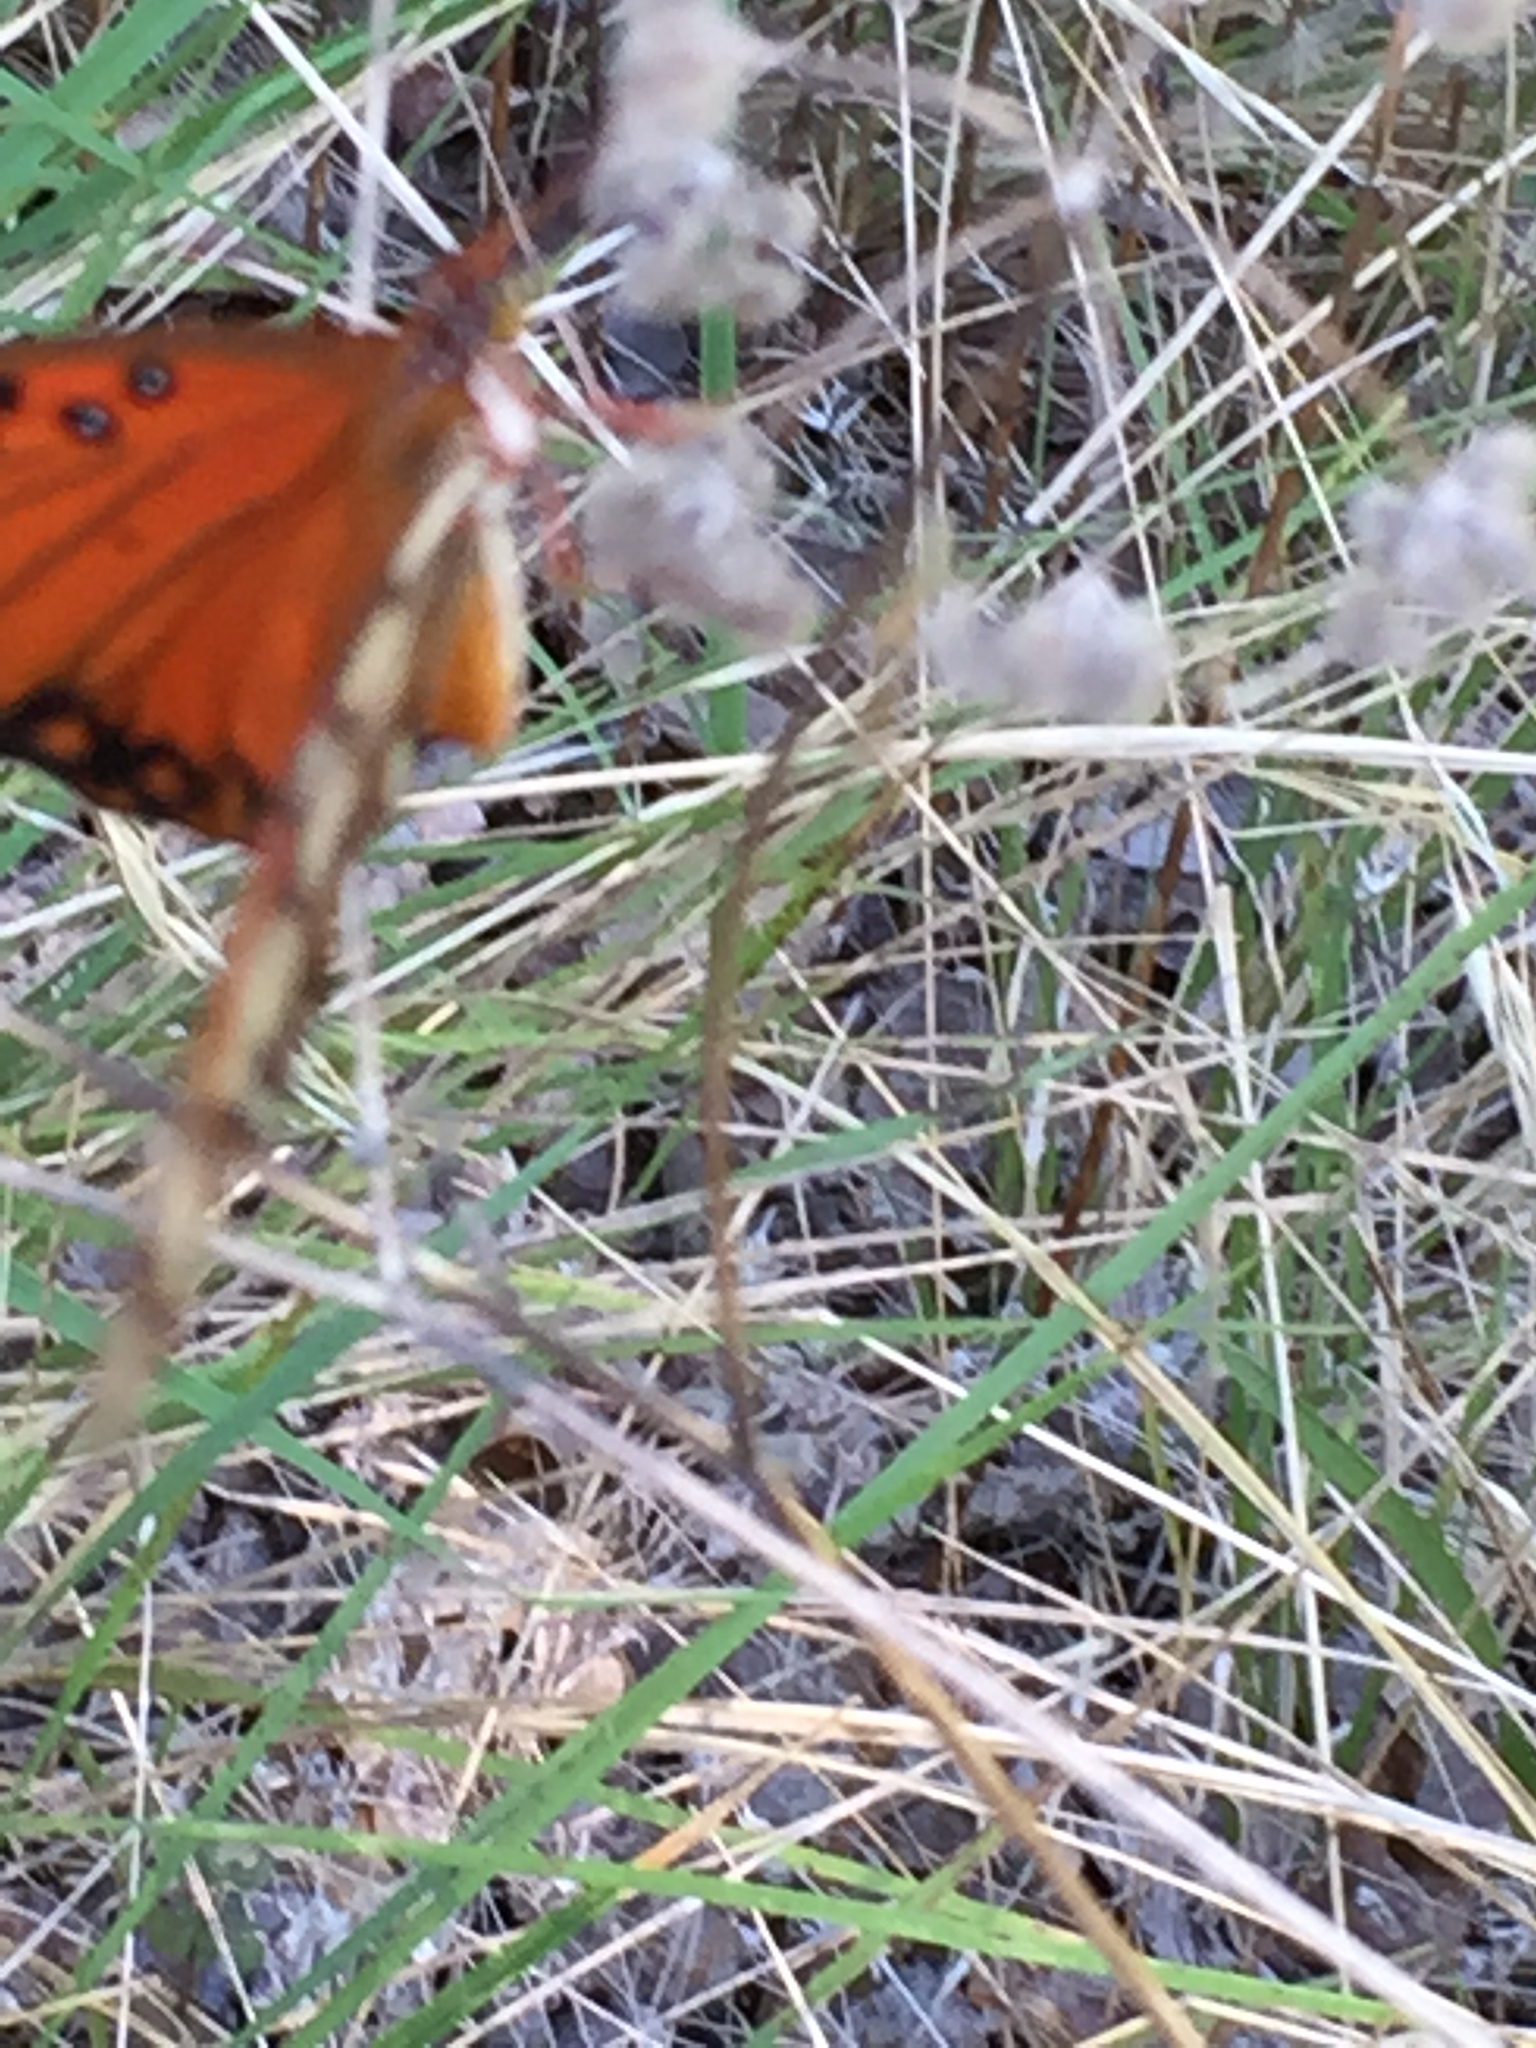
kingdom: Animalia
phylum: Arthropoda
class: Insecta
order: Lepidoptera
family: Nymphalidae
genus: Dione
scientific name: Dione vanillae
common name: Gulf fritillary
